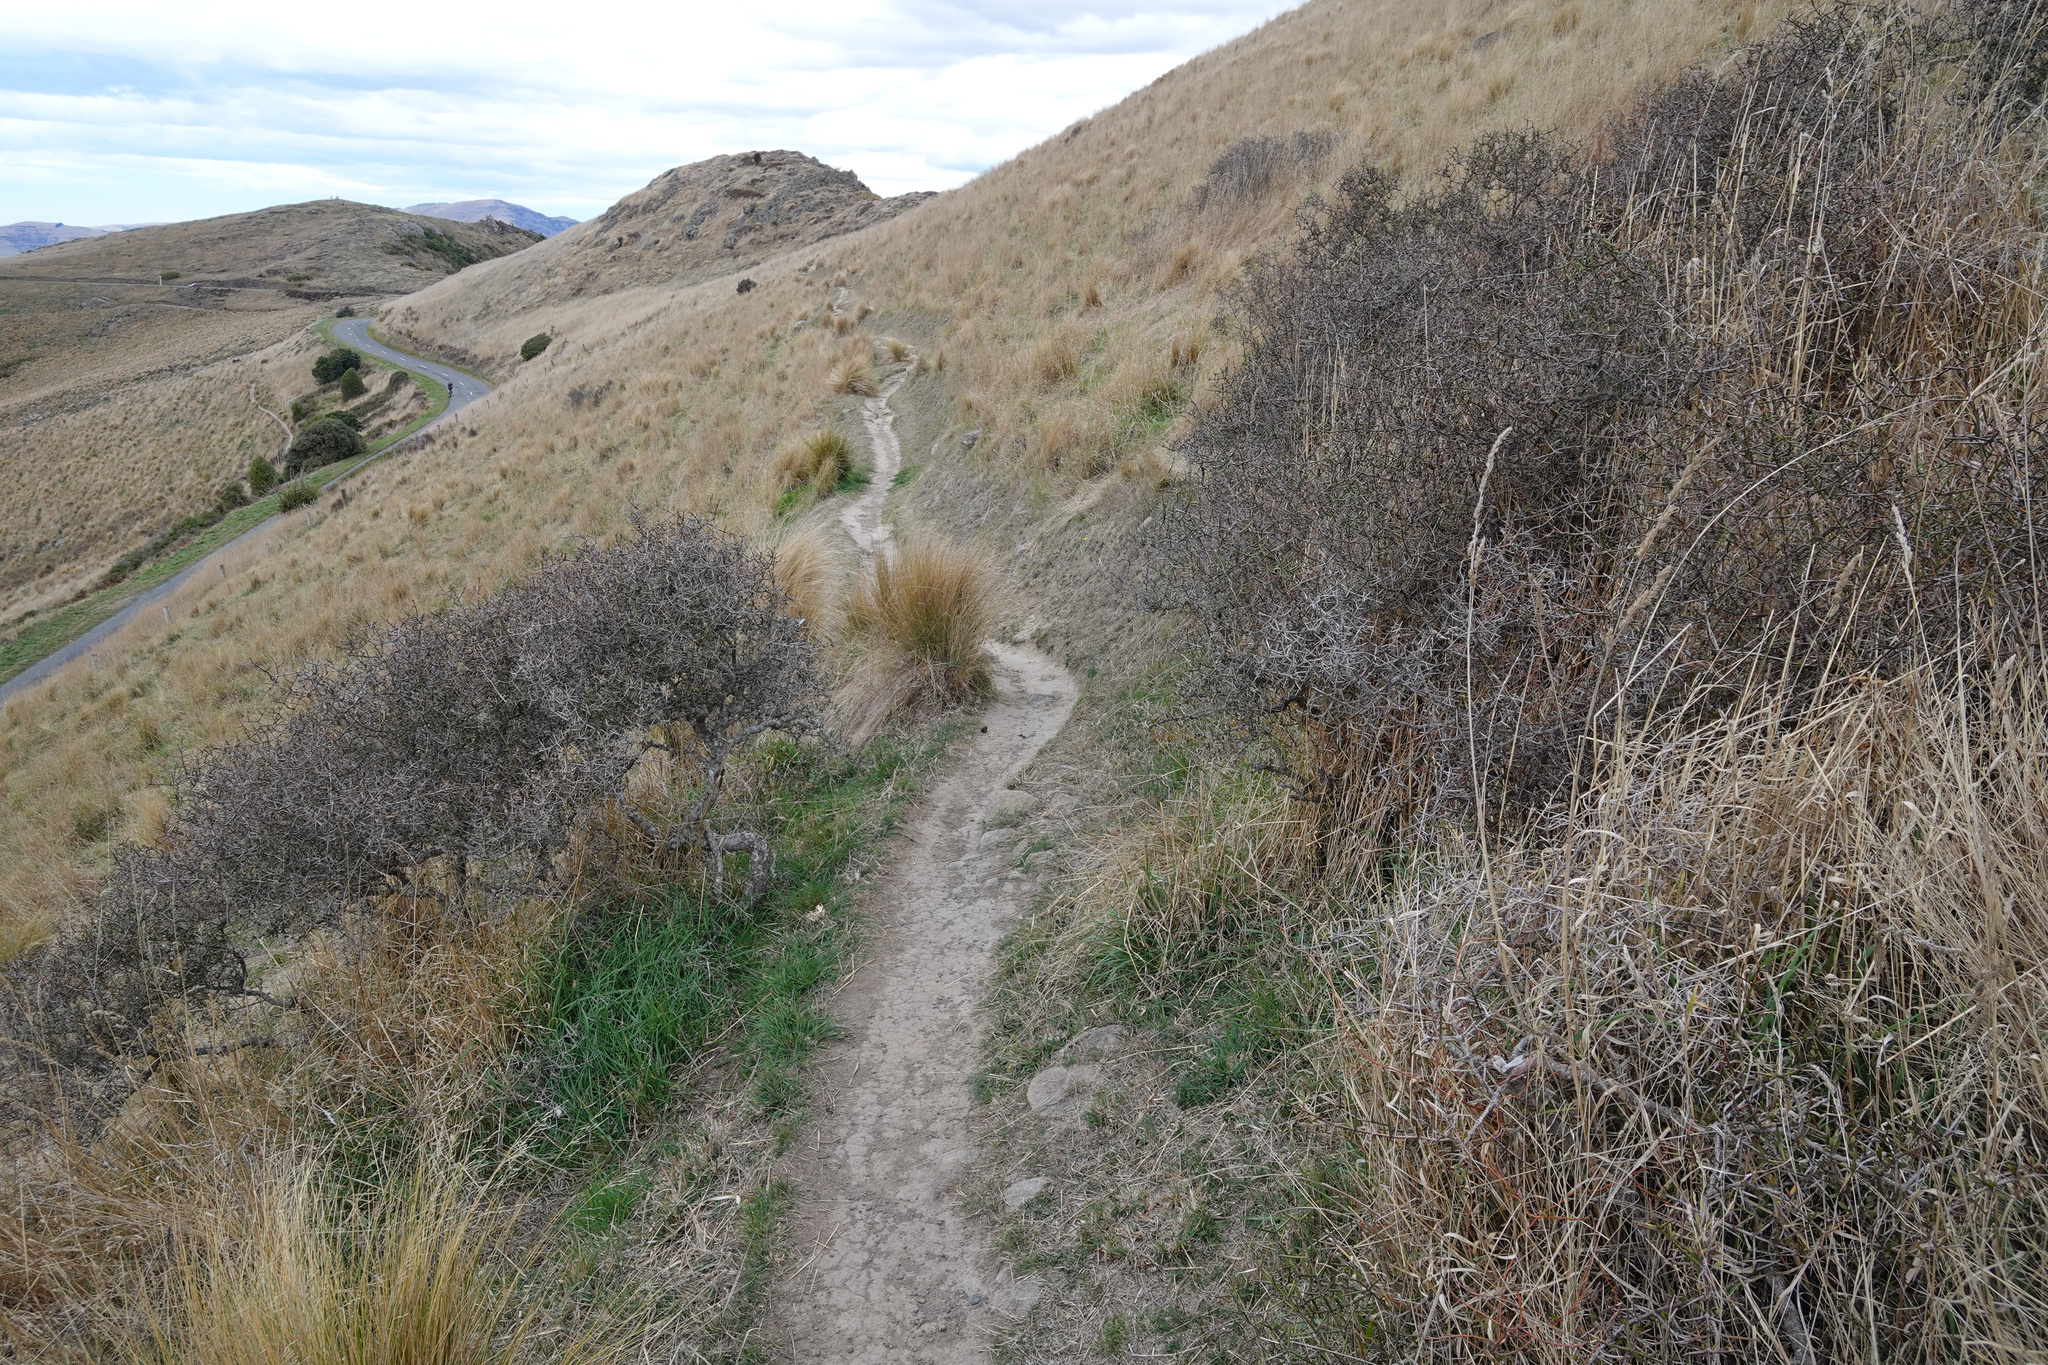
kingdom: Plantae
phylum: Tracheophyta
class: Magnoliopsida
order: Rosales
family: Rhamnaceae
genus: Discaria
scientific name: Discaria toumatou
